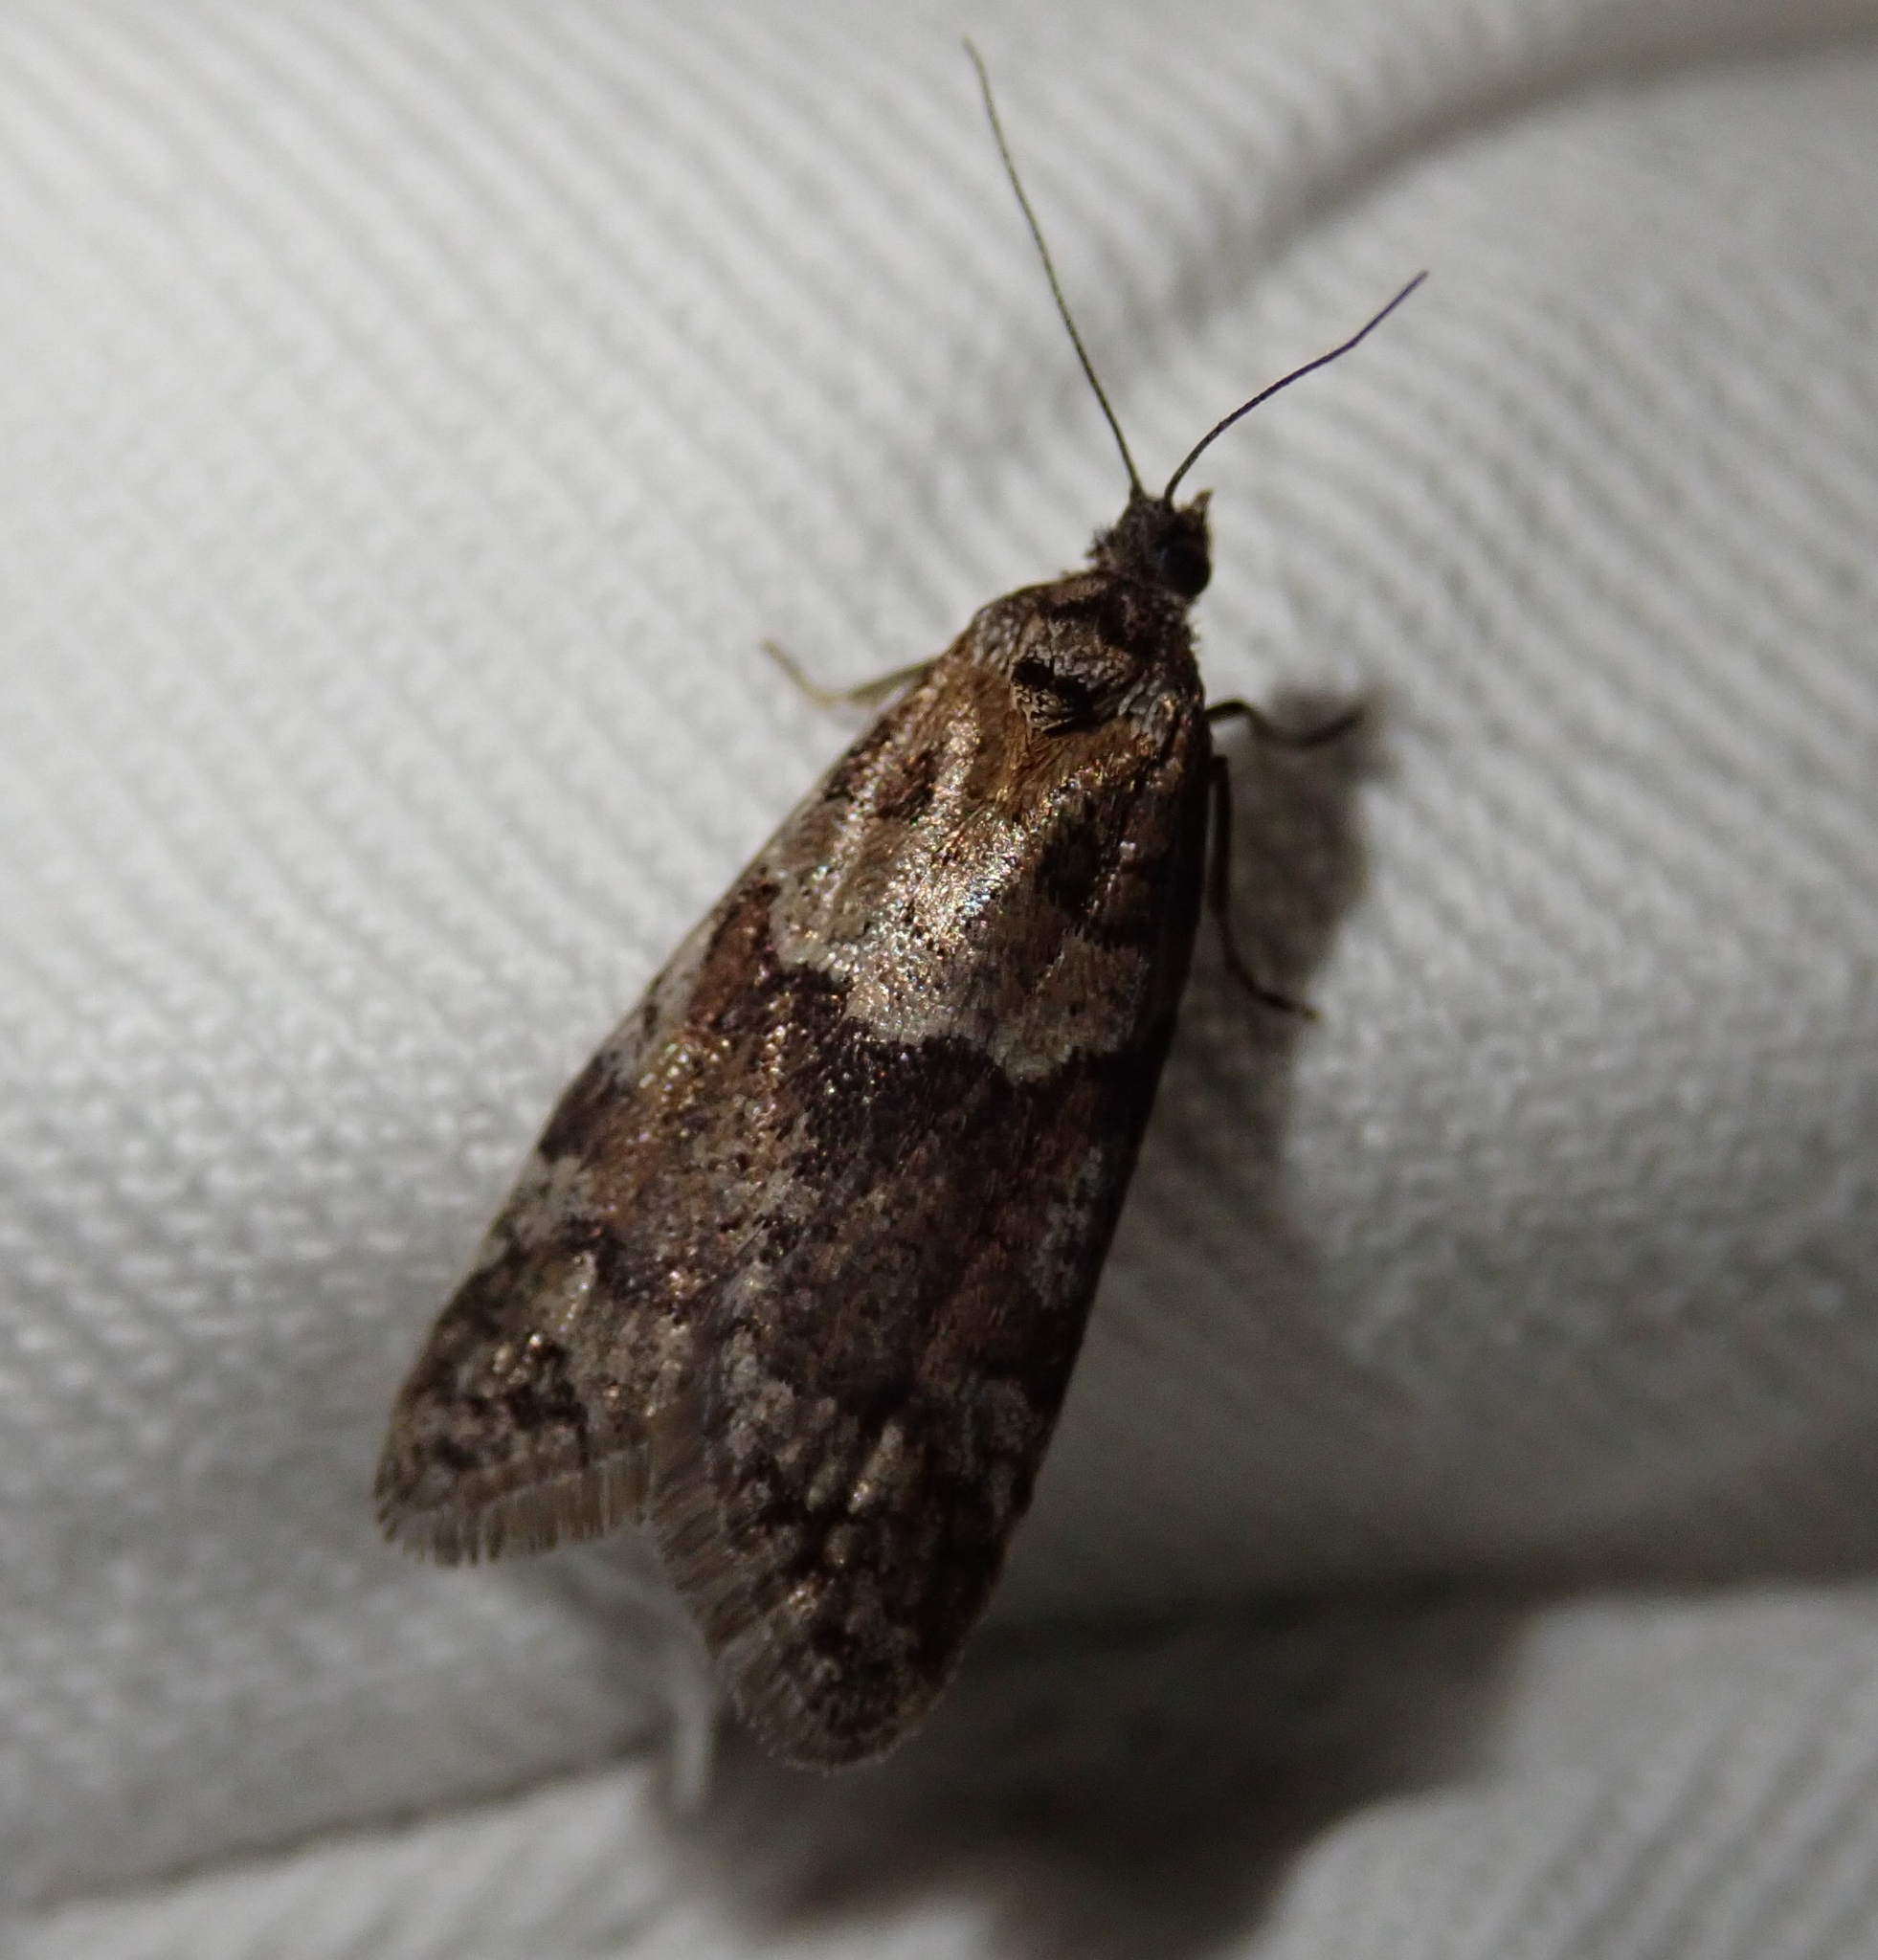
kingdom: Animalia
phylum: Arthropoda
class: Insecta
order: Lepidoptera
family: Tortricidae
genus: Tortricodes
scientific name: Tortricodes alternella
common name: Winter shade
